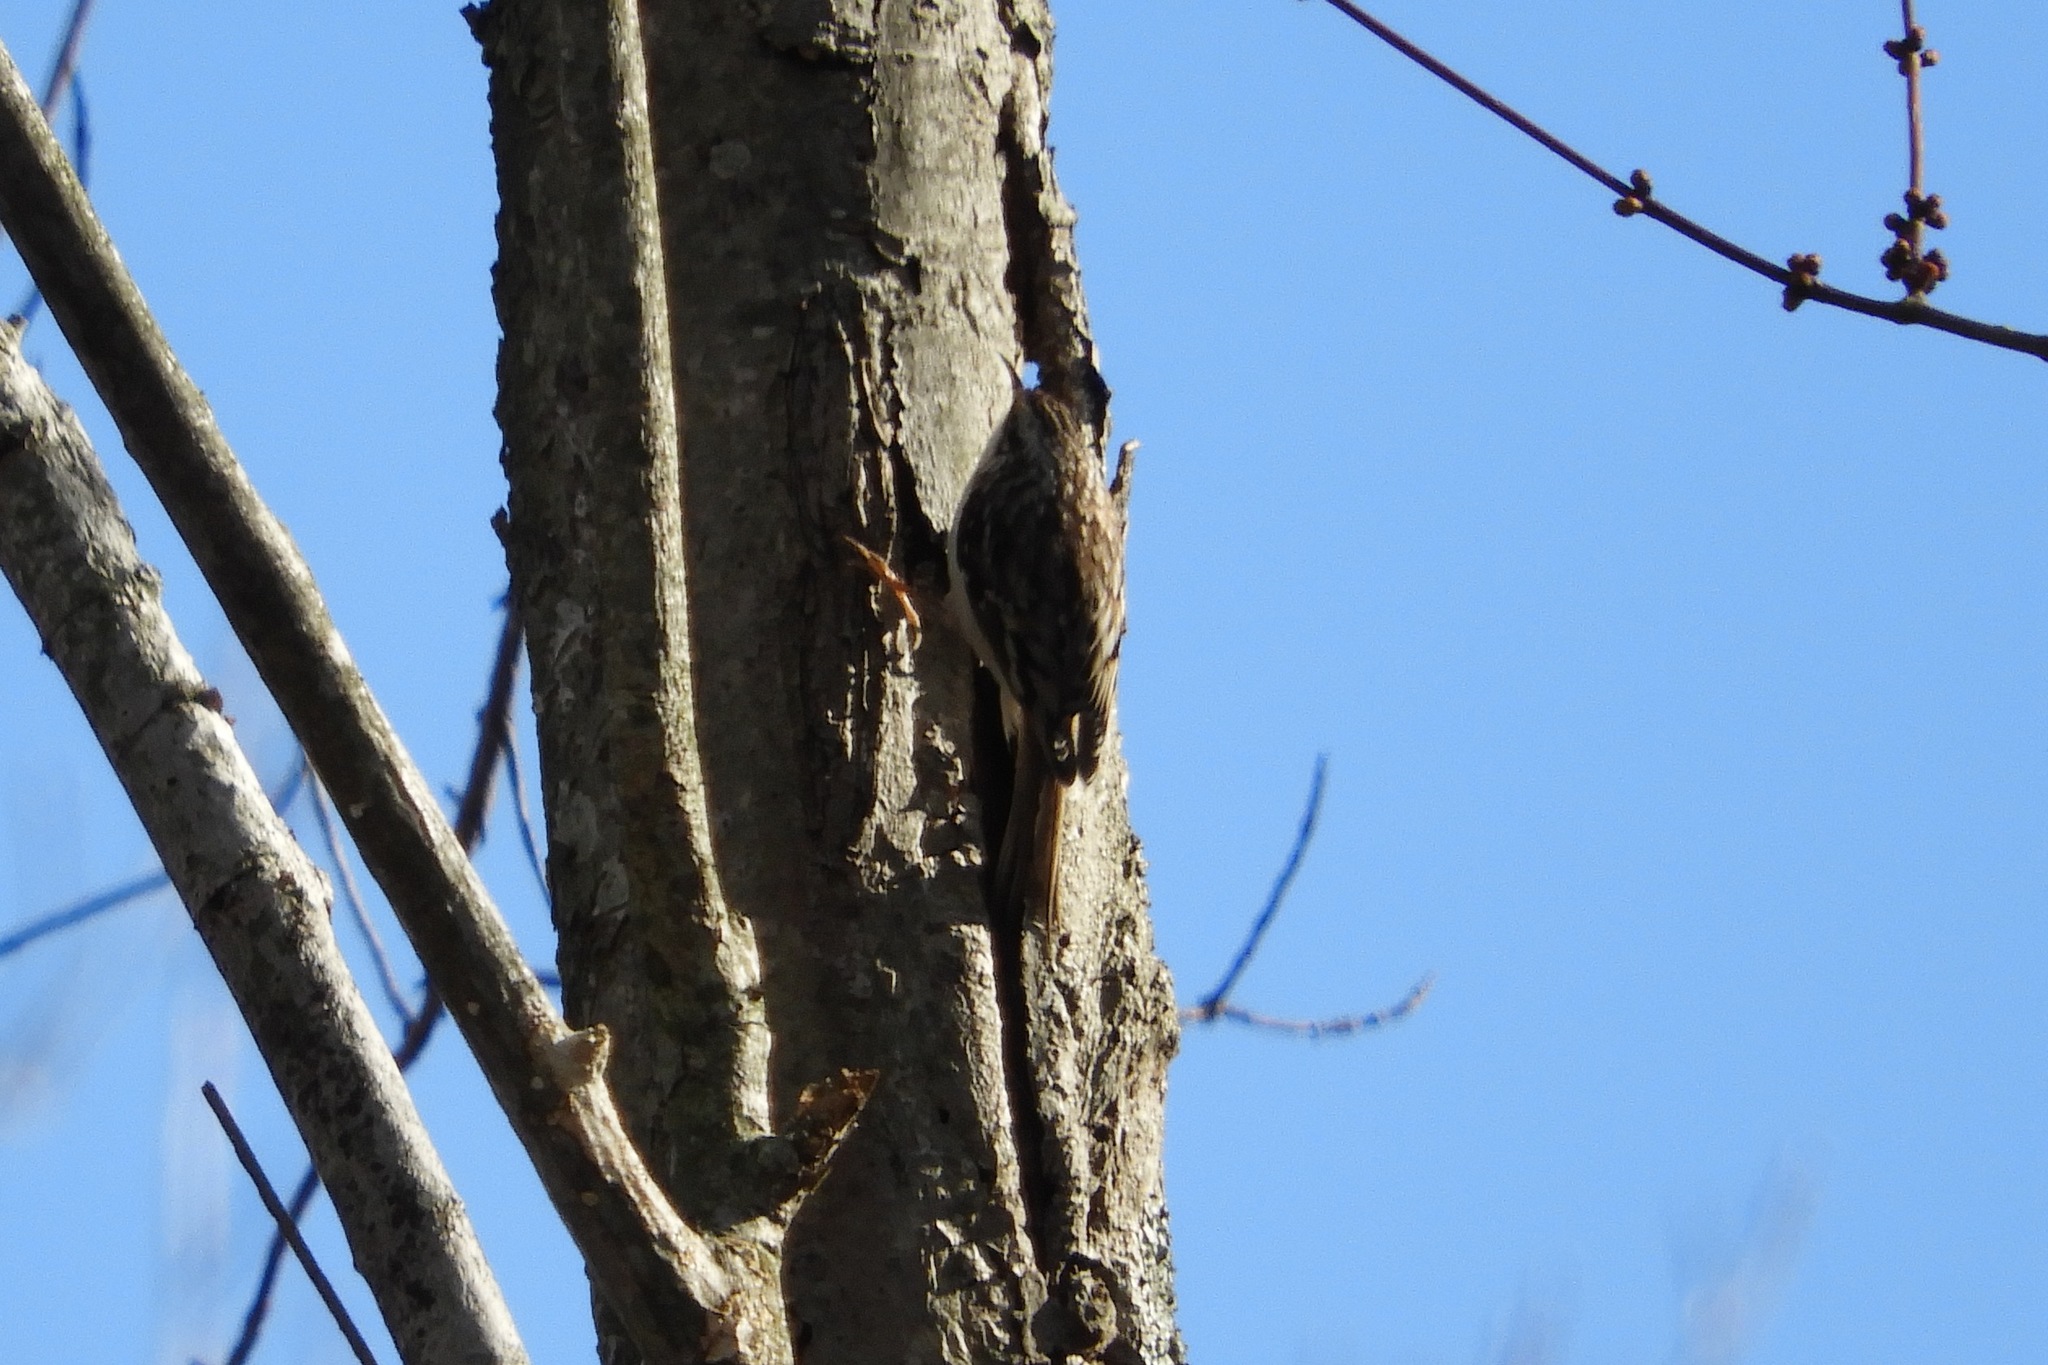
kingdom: Animalia
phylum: Chordata
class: Aves
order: Passeriformes
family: Certhiidae
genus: Certhia
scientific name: Certhia americana
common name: Brown creeper
